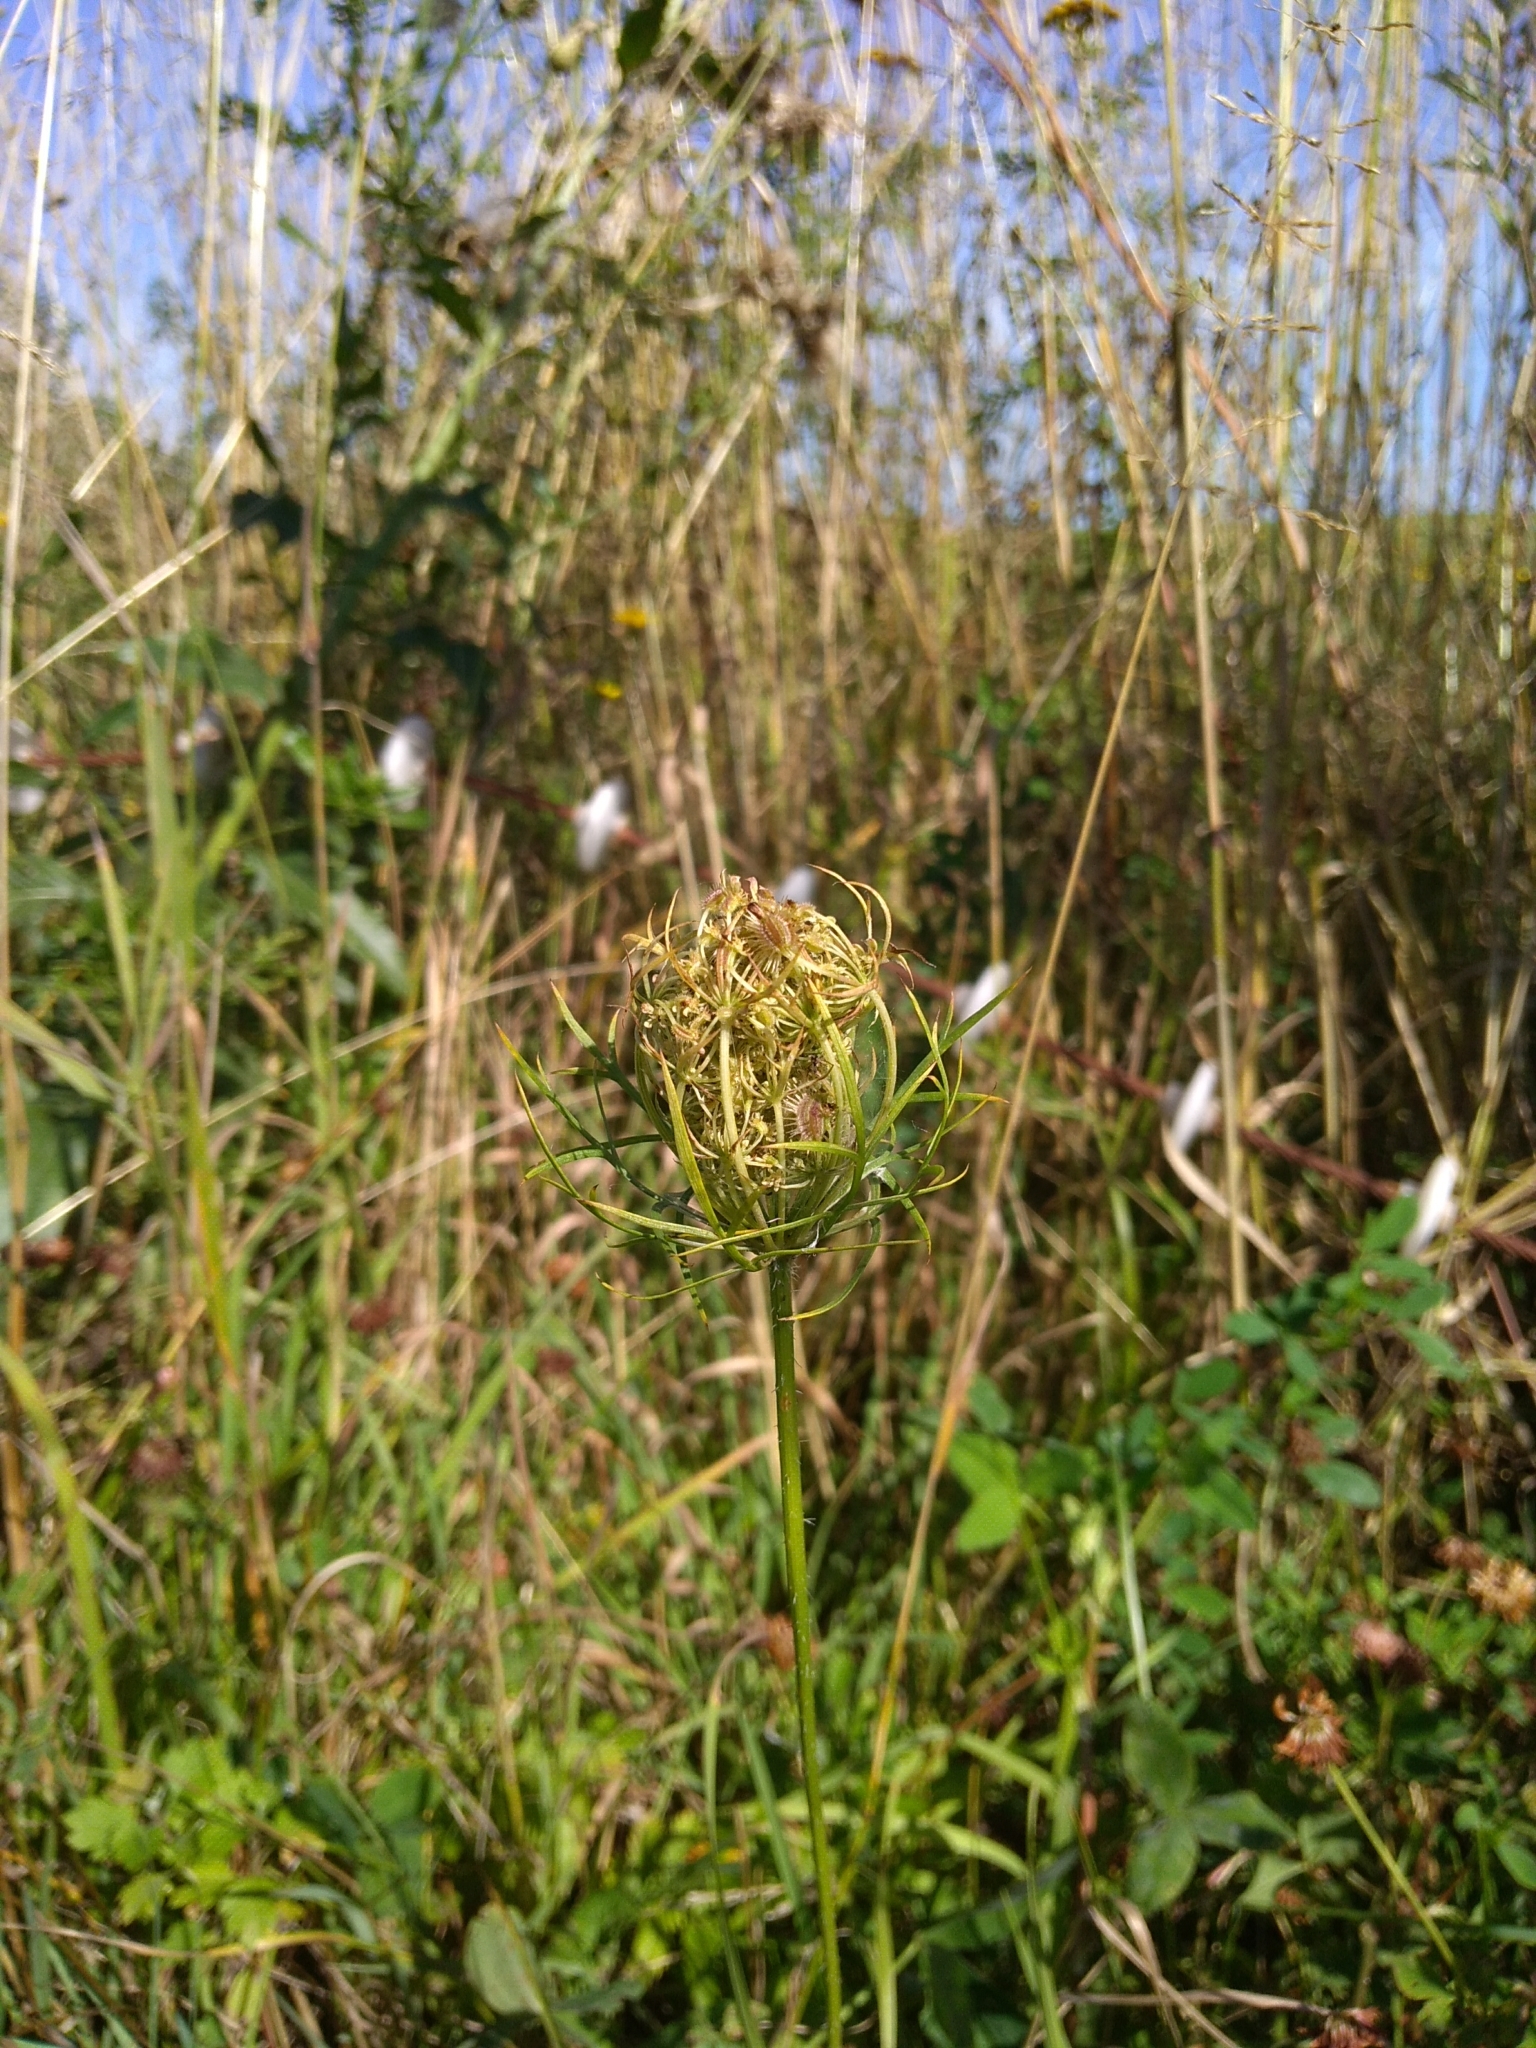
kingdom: Plantae
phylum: Tracheophyta
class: Magnoliopsida
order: Apiales
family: Apiaceae
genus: Daucus
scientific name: Daucus carota
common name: Wild carrot
